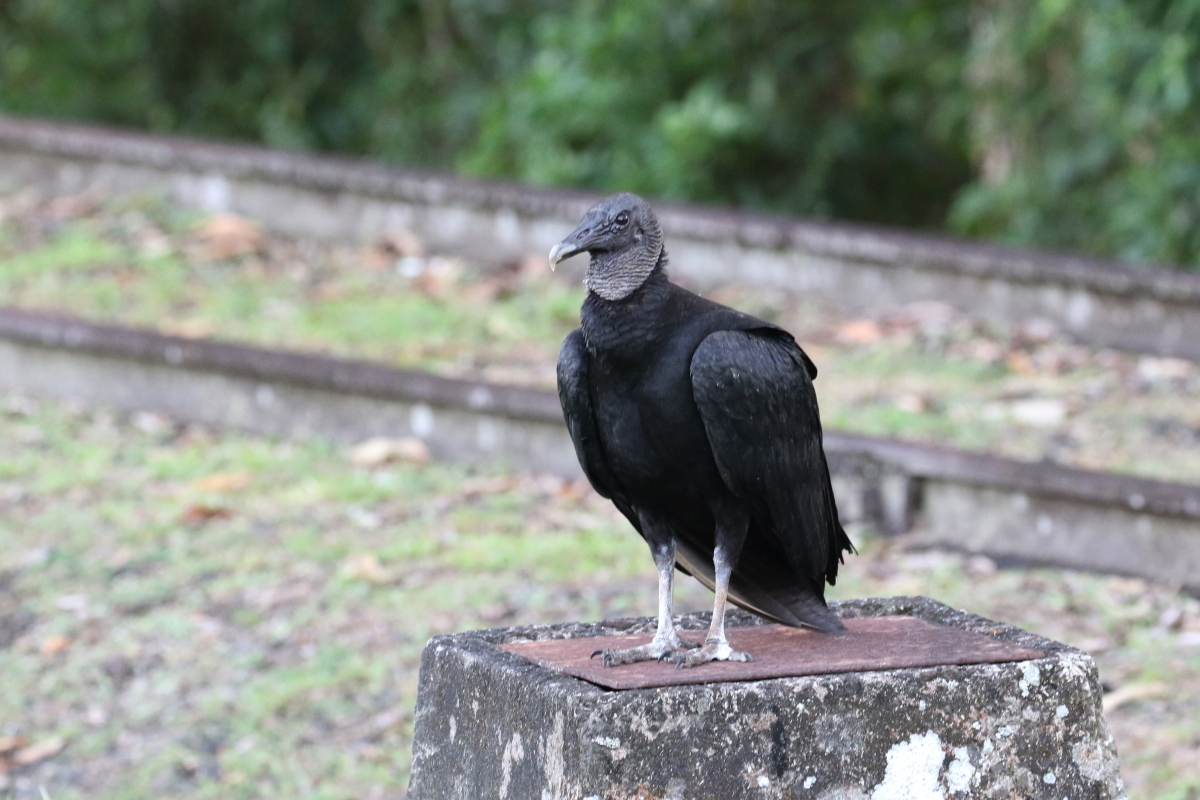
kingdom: Animalia
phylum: Chordata
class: Aves
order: Accipitriformes
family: Cathartidae
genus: Coragyps
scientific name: Coragyps atratus
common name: Black vulture
